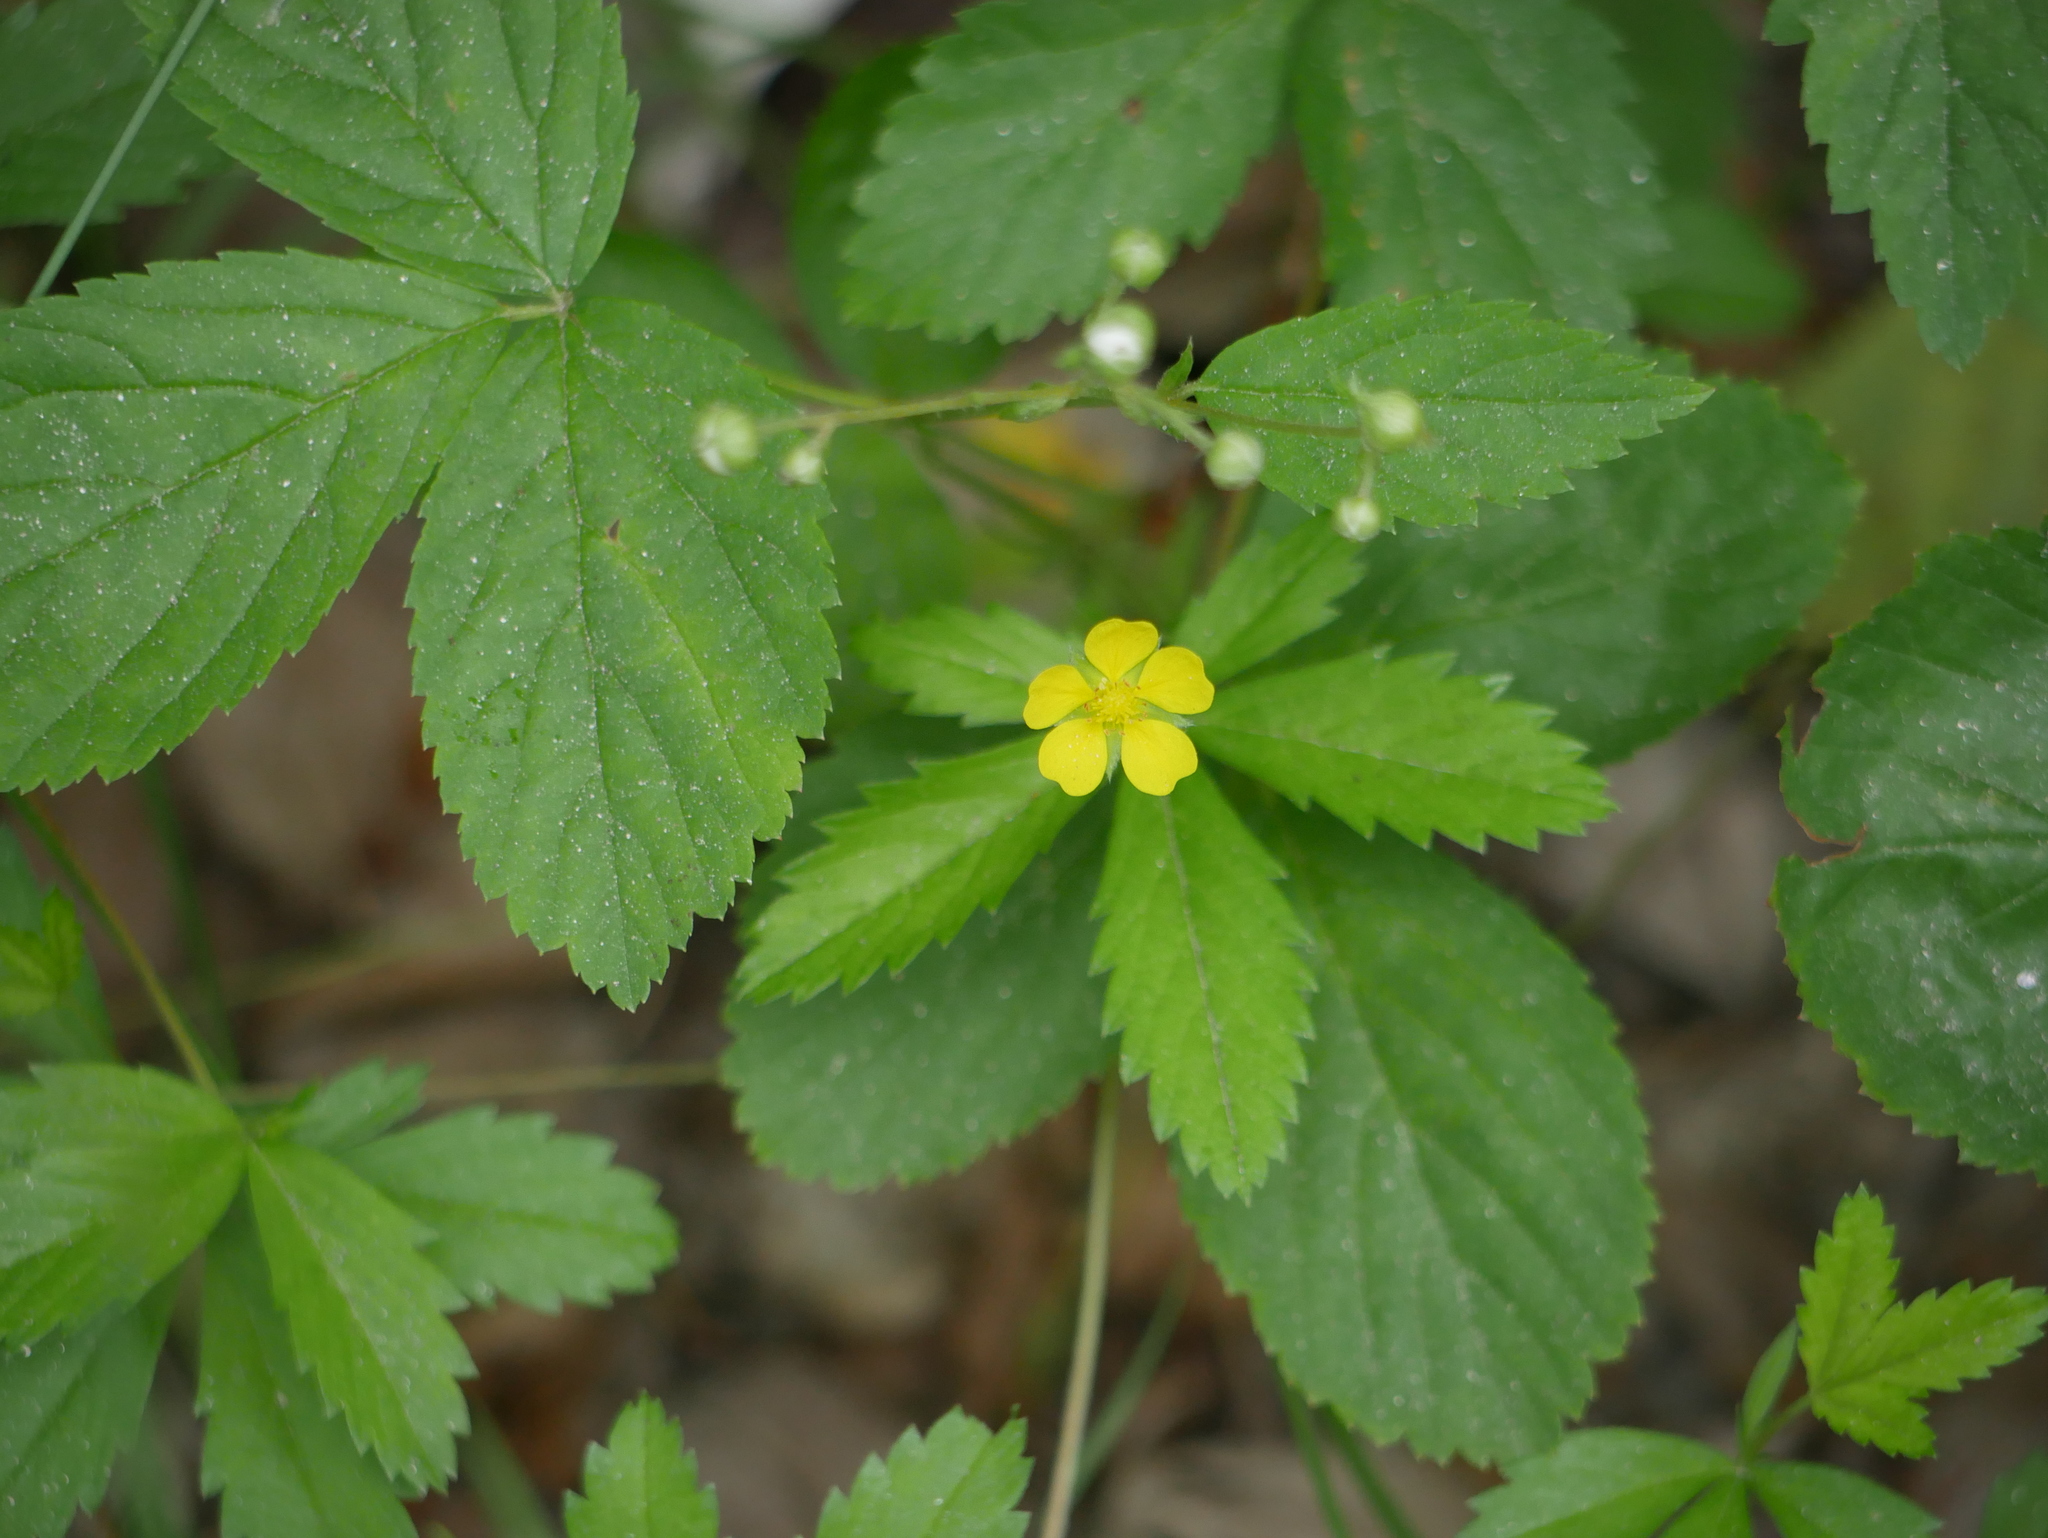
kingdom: Plantae
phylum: Tracheophyta
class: Magnoliopsida
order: Rosales
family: Rosaceae
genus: Potentilla
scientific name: Potentilla simplex
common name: Old field cinquefoil
